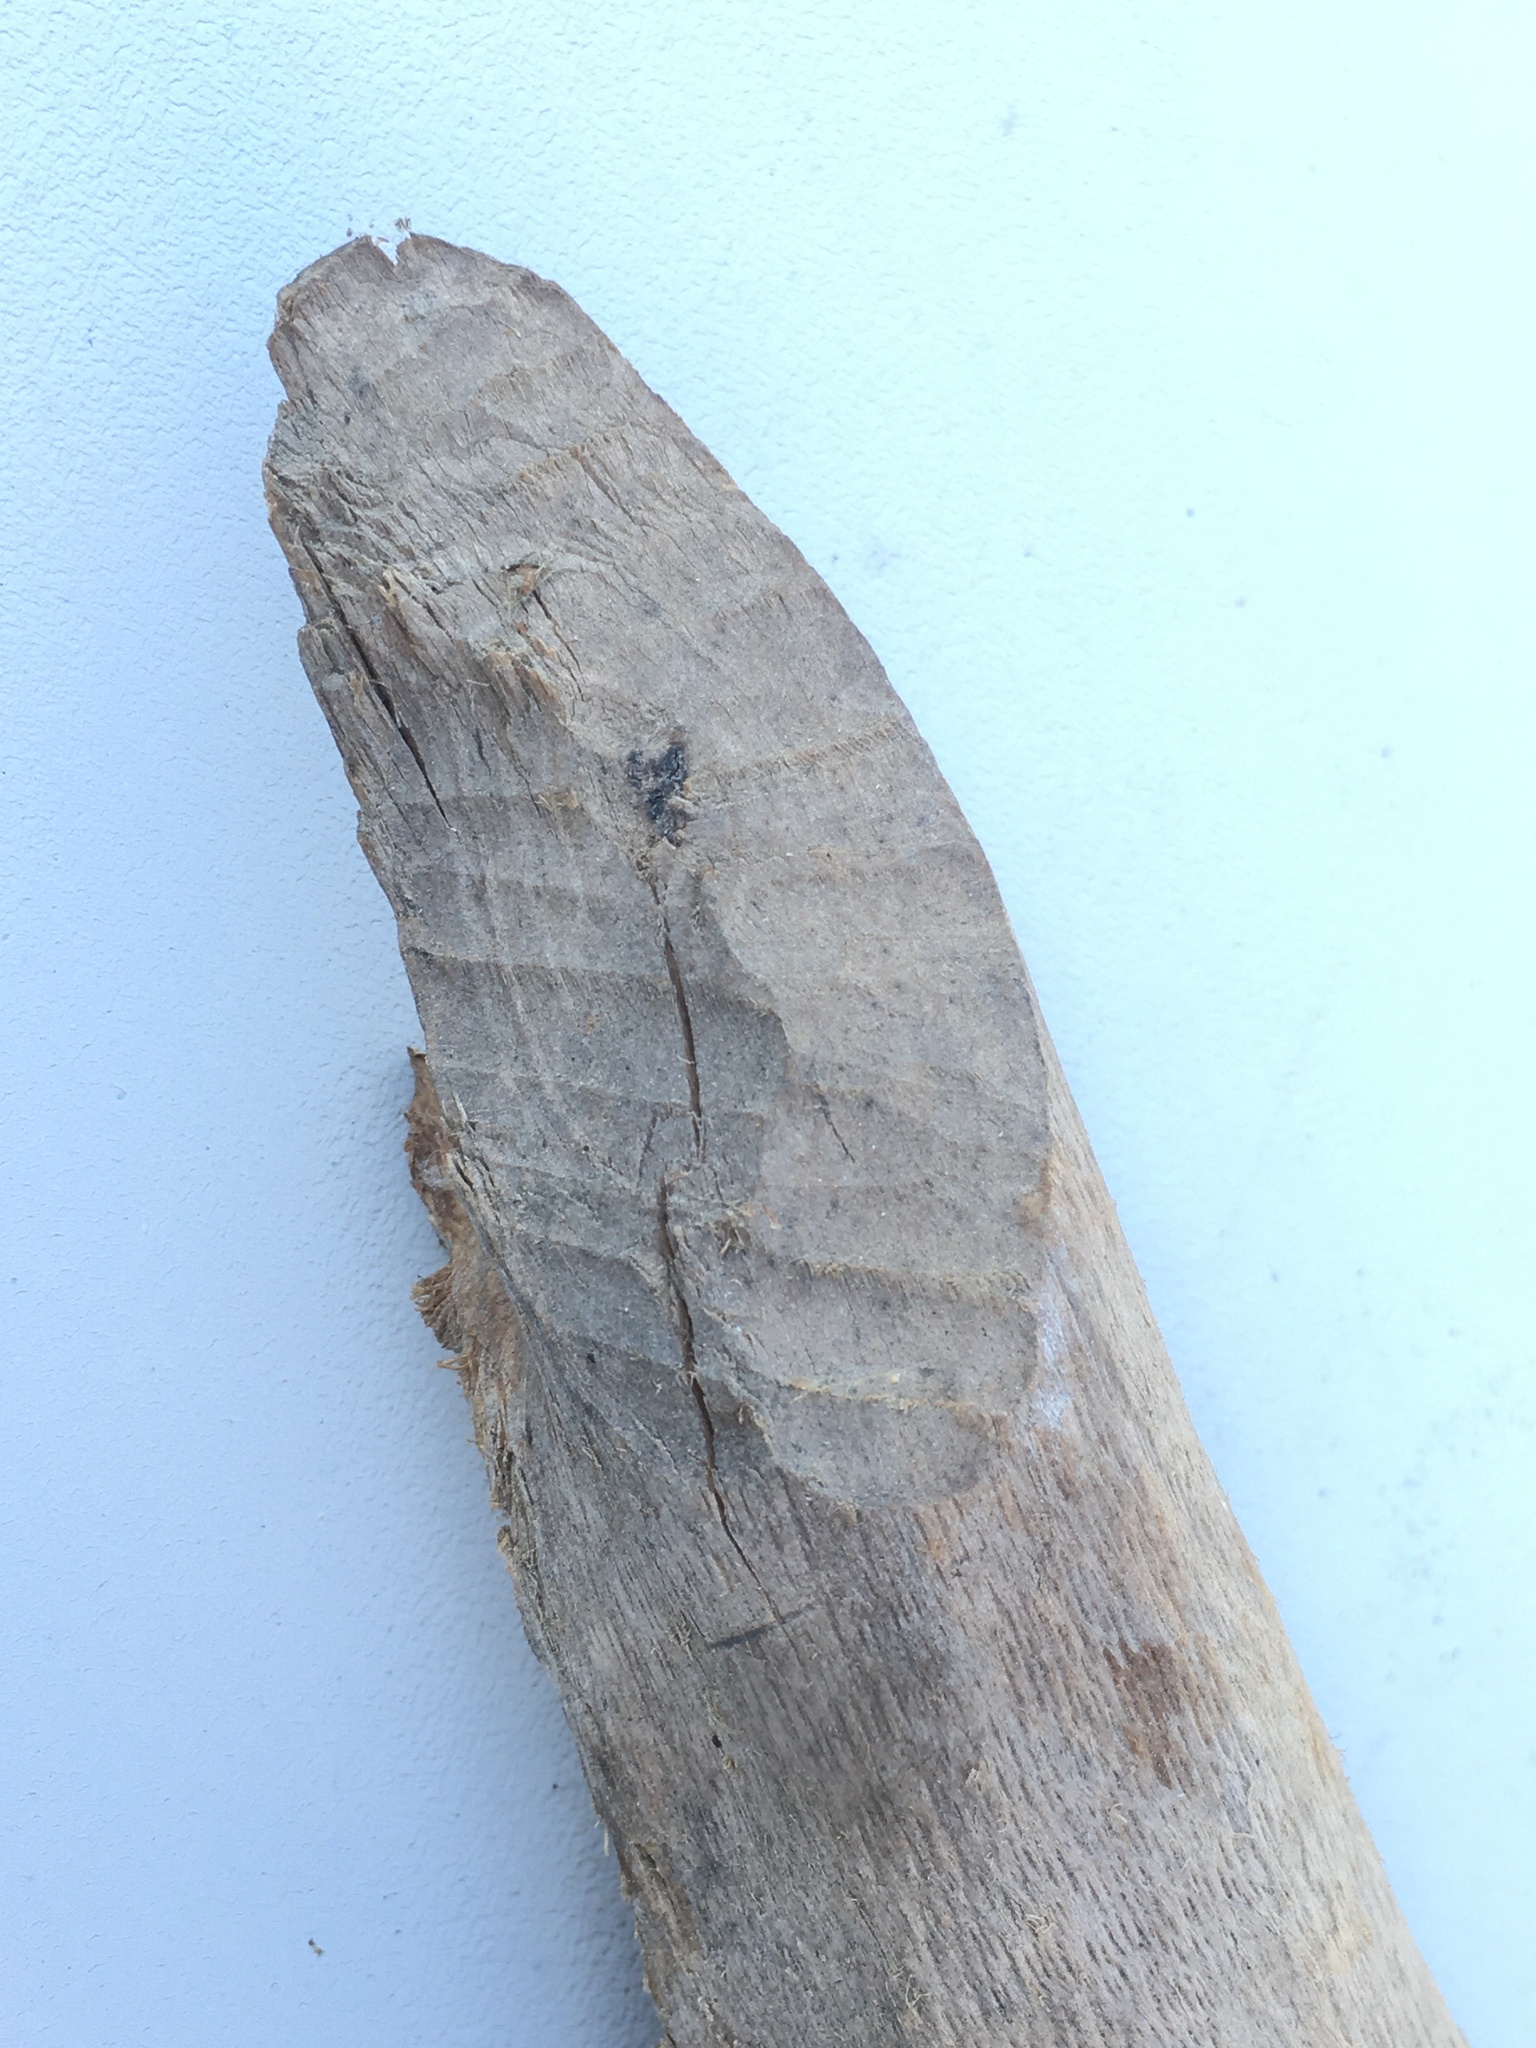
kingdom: Animalia
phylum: Chordata
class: Mammalia
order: Rodentia
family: Castoridae
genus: Castor
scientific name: Castor canadensis
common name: American beaver
